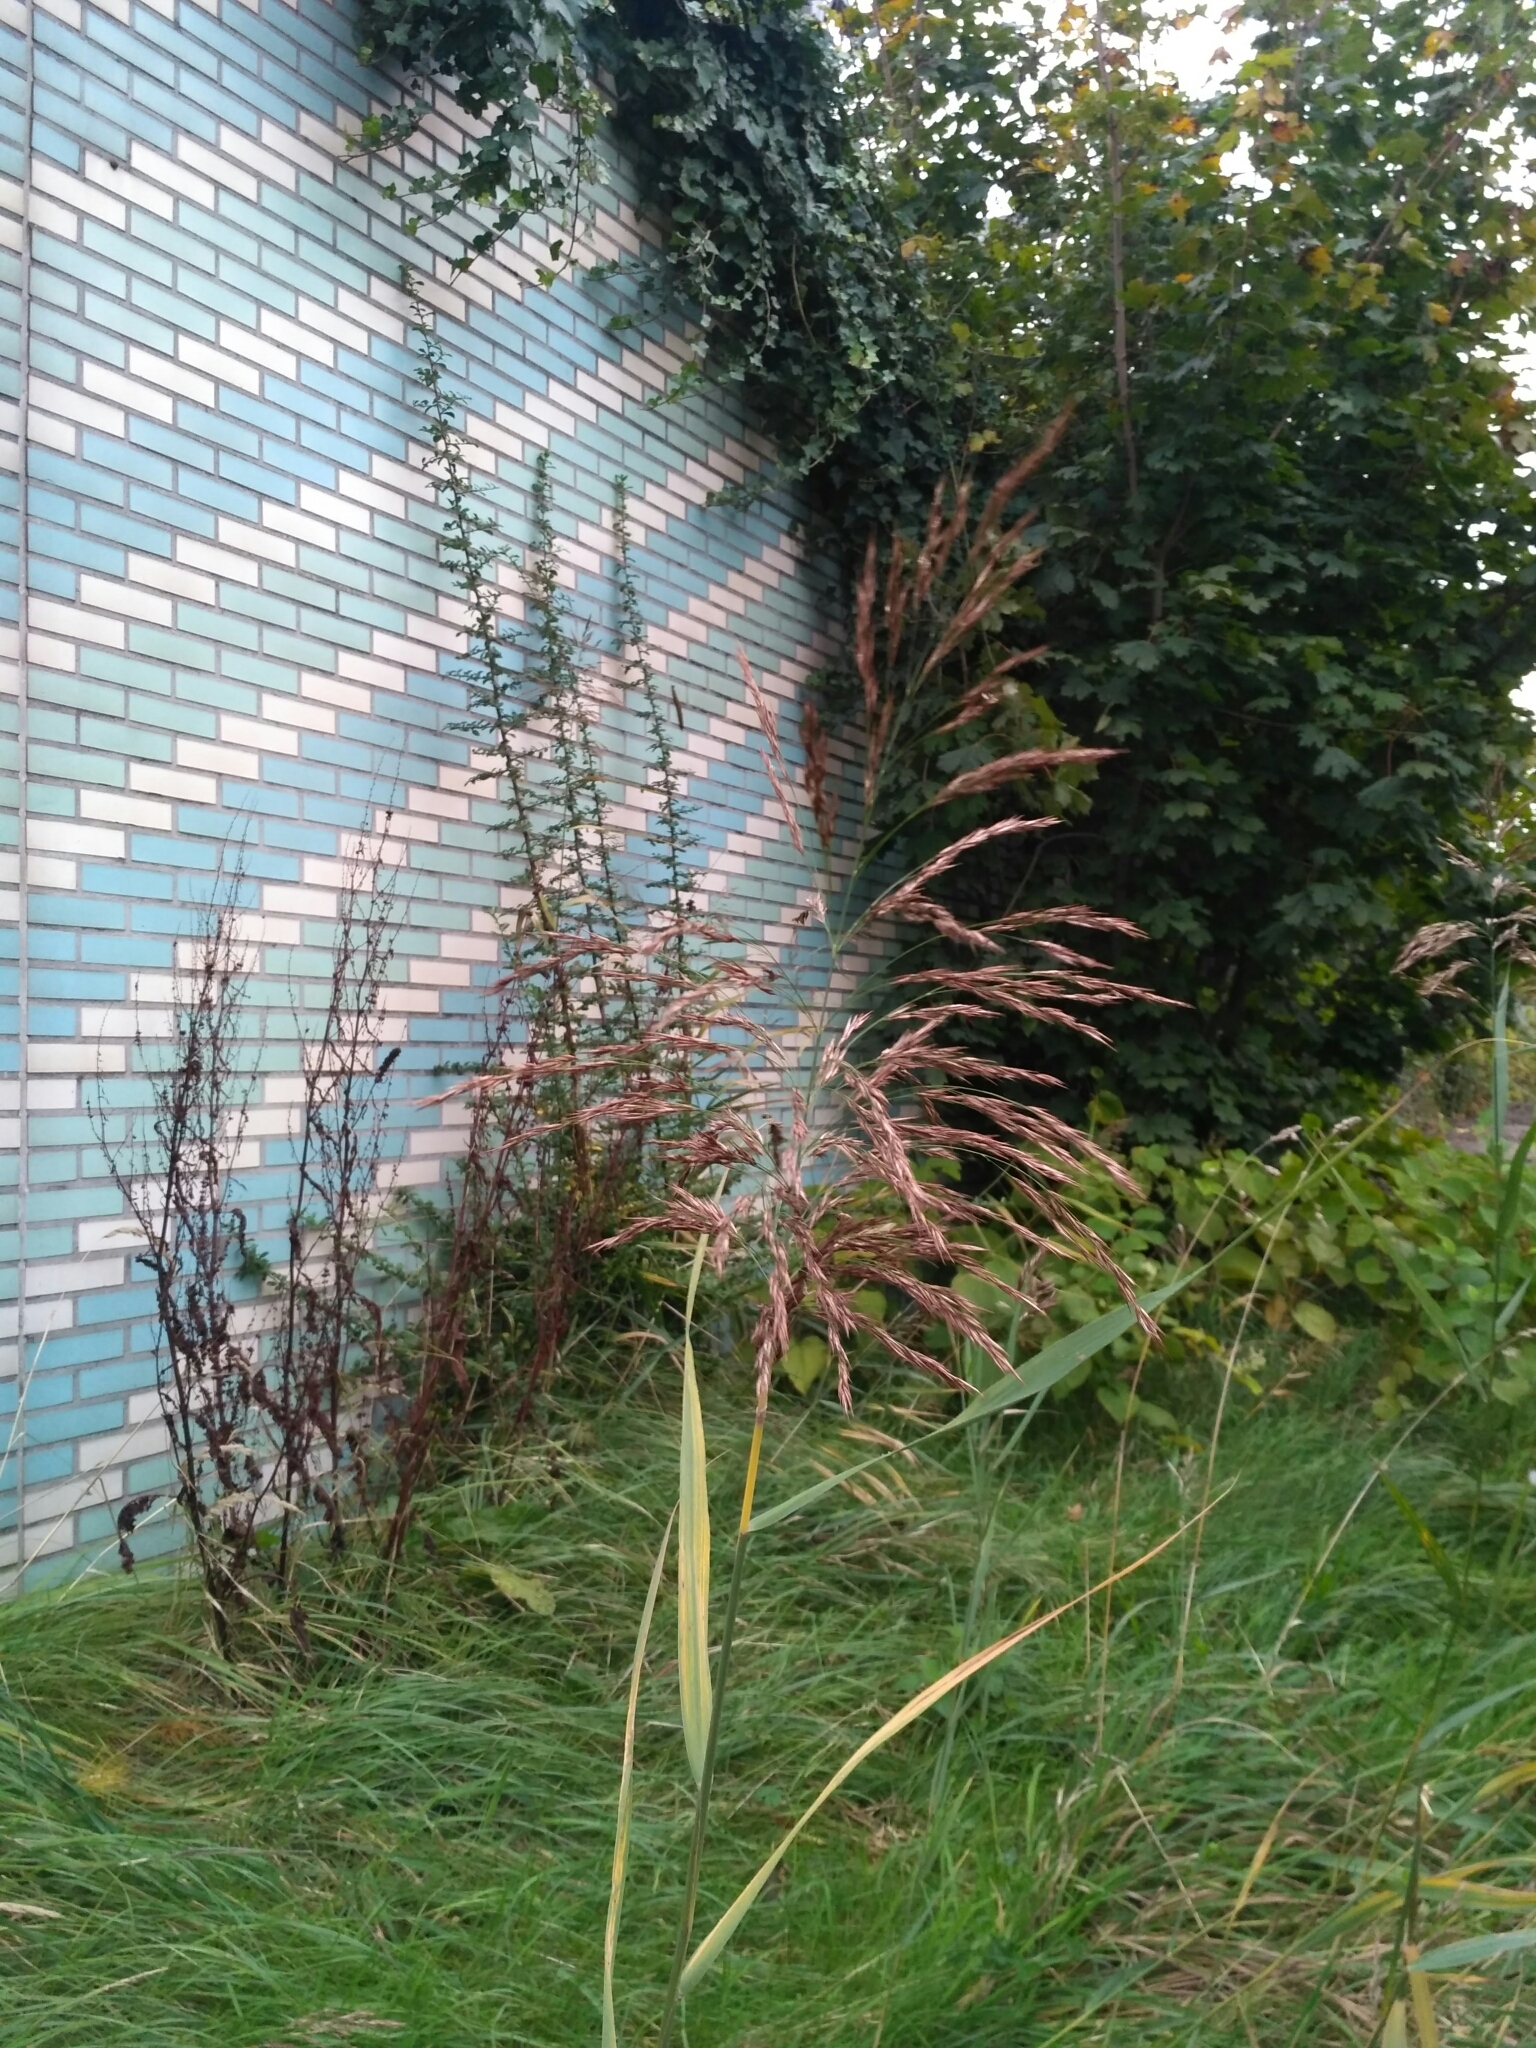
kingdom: Plantae
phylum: Tracheophyta
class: Liliopsida
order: Poales
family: Poaceae
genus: Phragmites
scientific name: Phragmites australis
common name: Common reed
